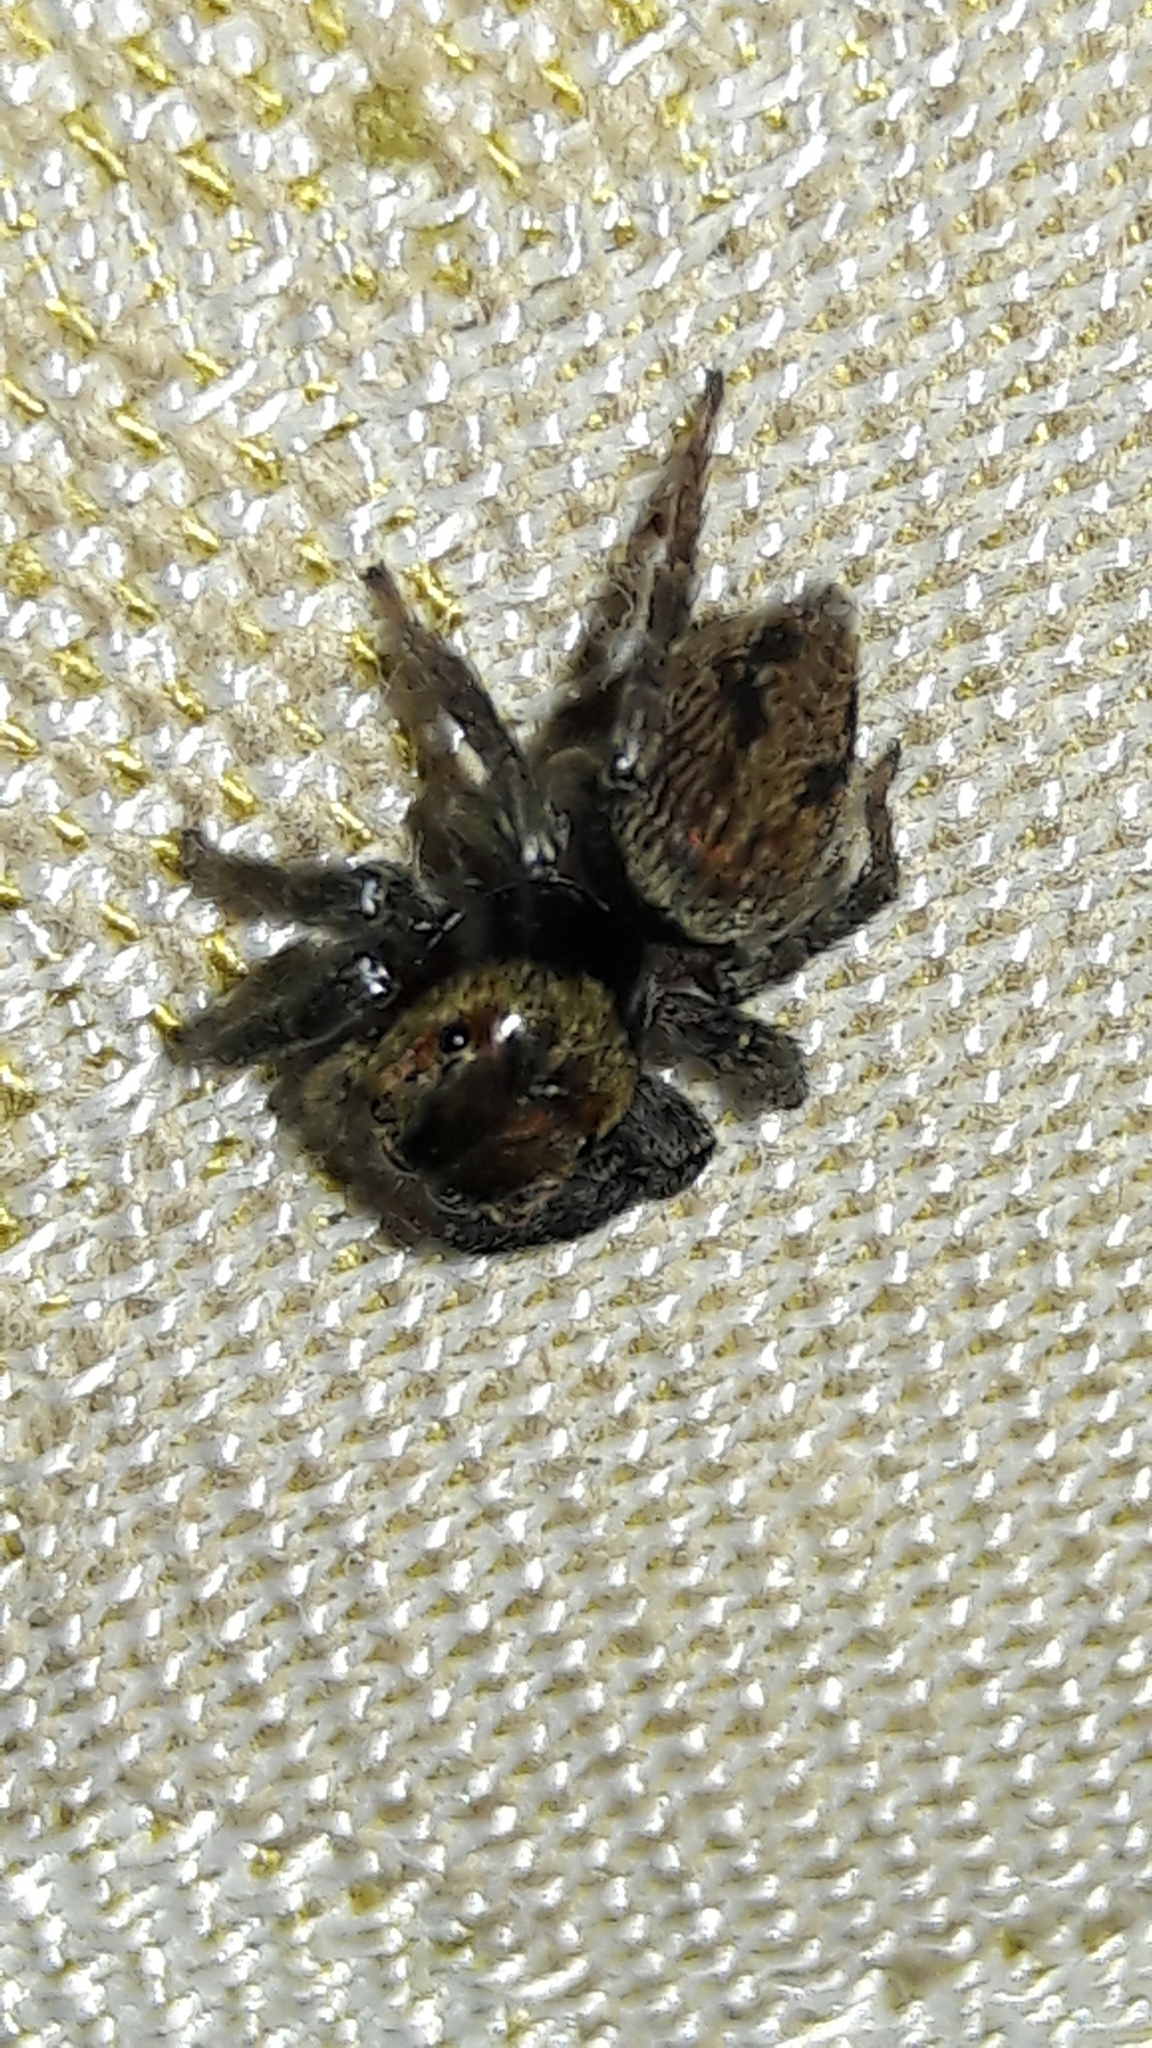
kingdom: Animalia
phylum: Arthropoda
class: Arachnida
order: Araneae
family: Salticidae
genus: Hasarius
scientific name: Hasarius adansoni
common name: Jumping spider
